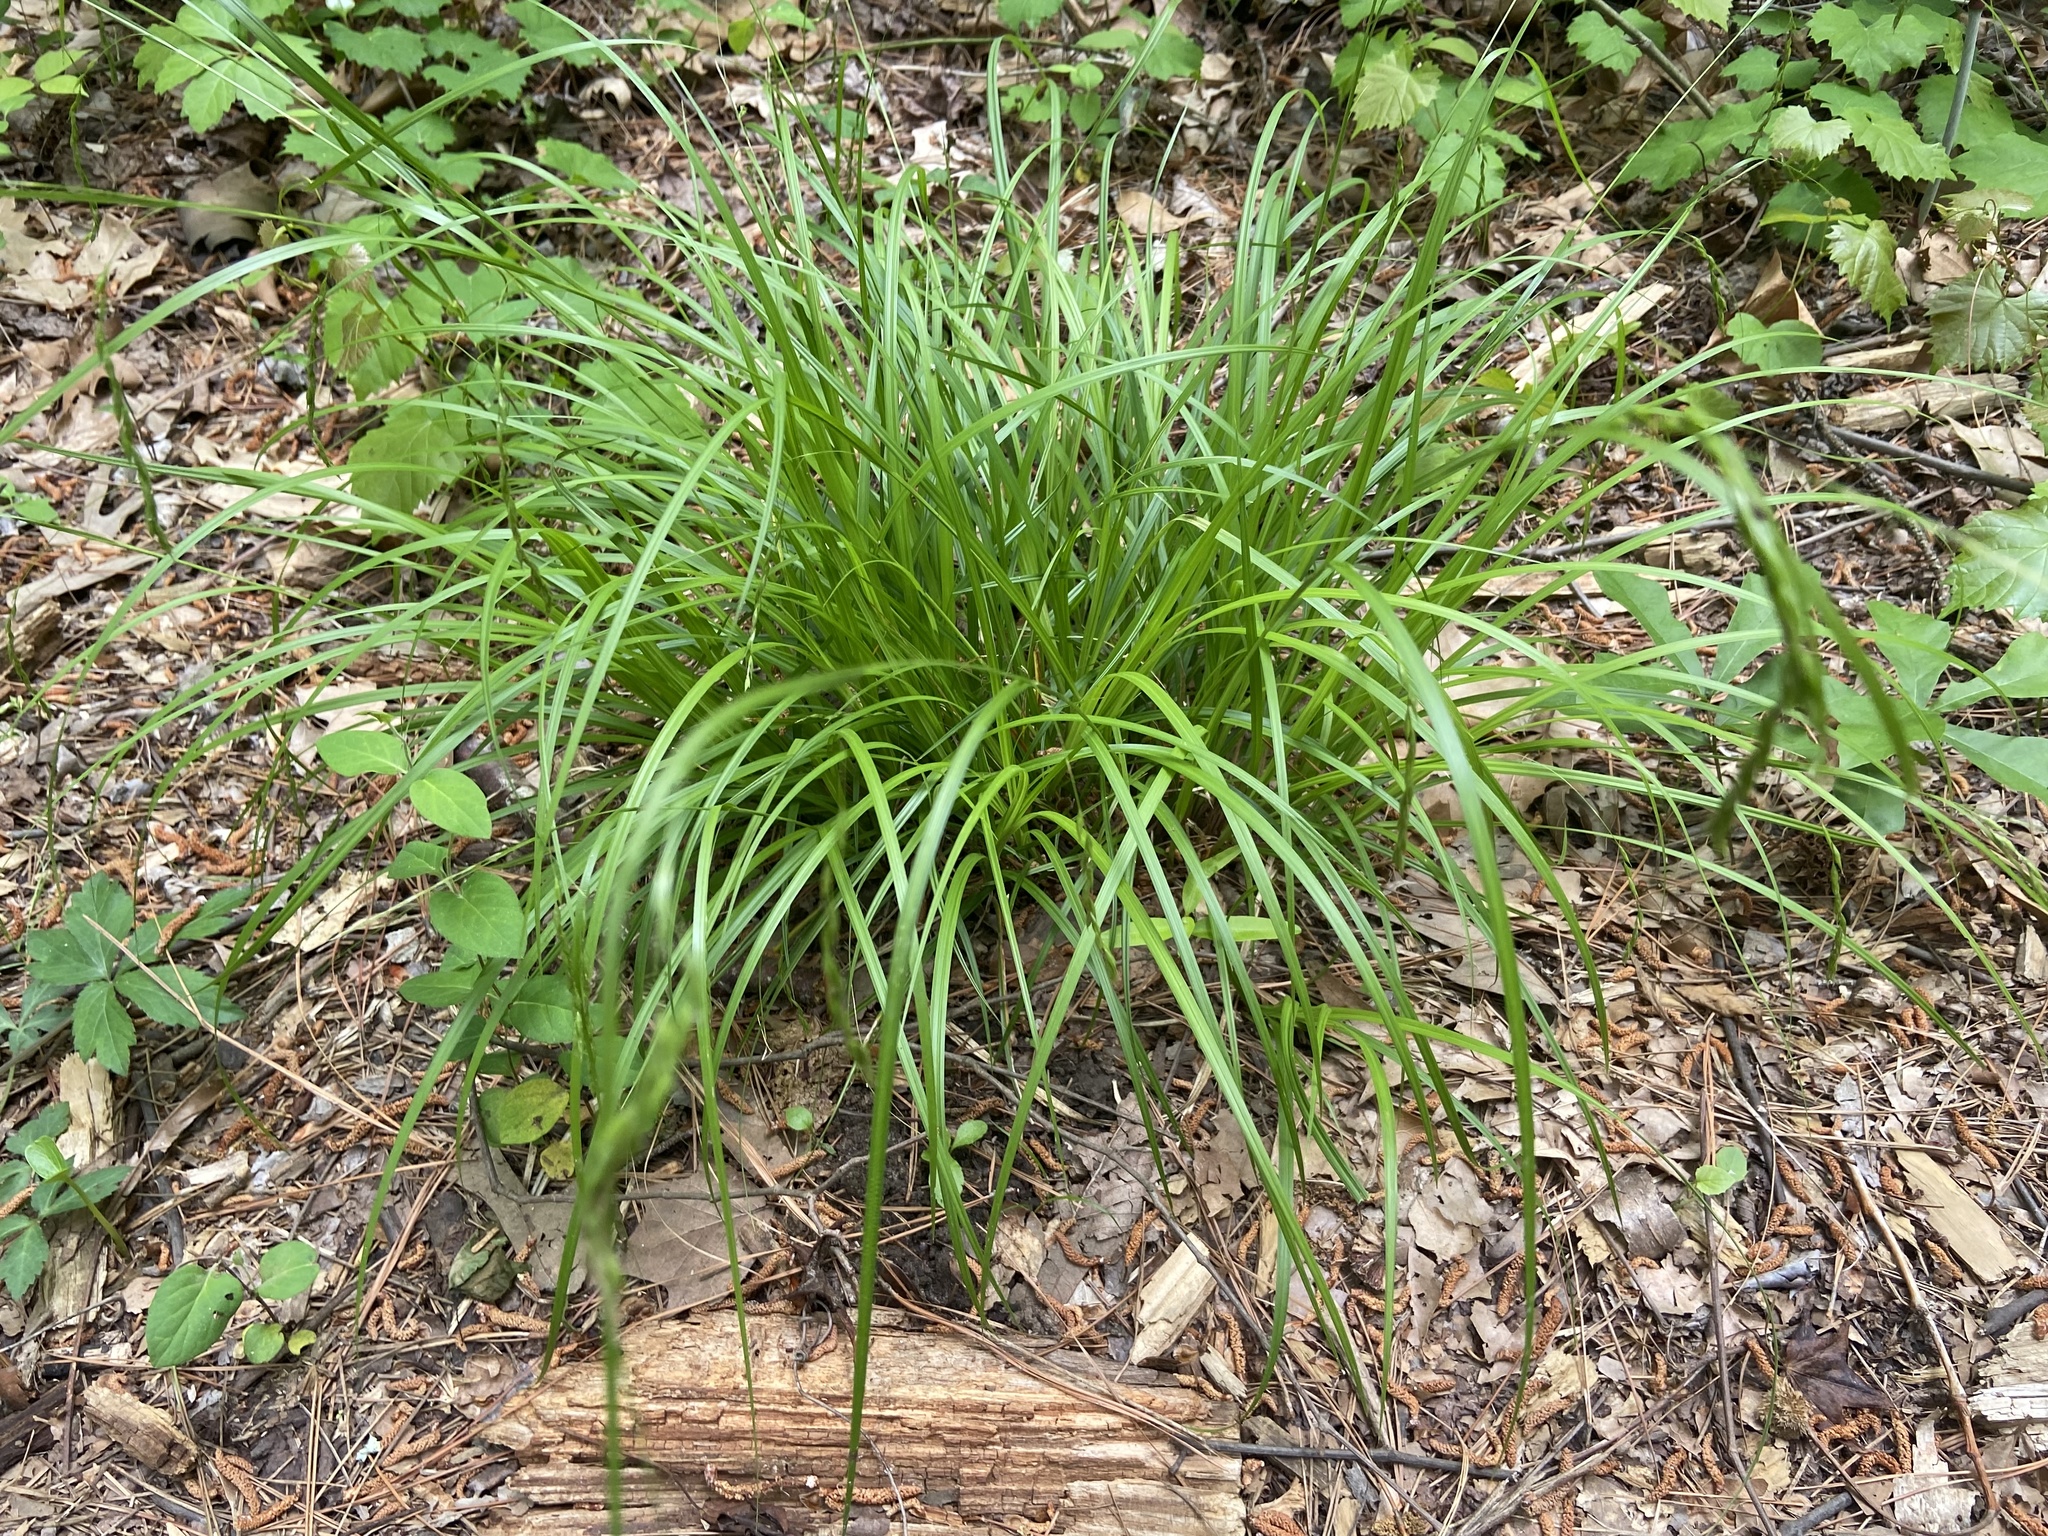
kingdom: Plantae
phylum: Tracheophyta
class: Liliopsida
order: Poales
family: Cyperaceae
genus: Carex
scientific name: Carex debilis
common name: White-edge sedge
